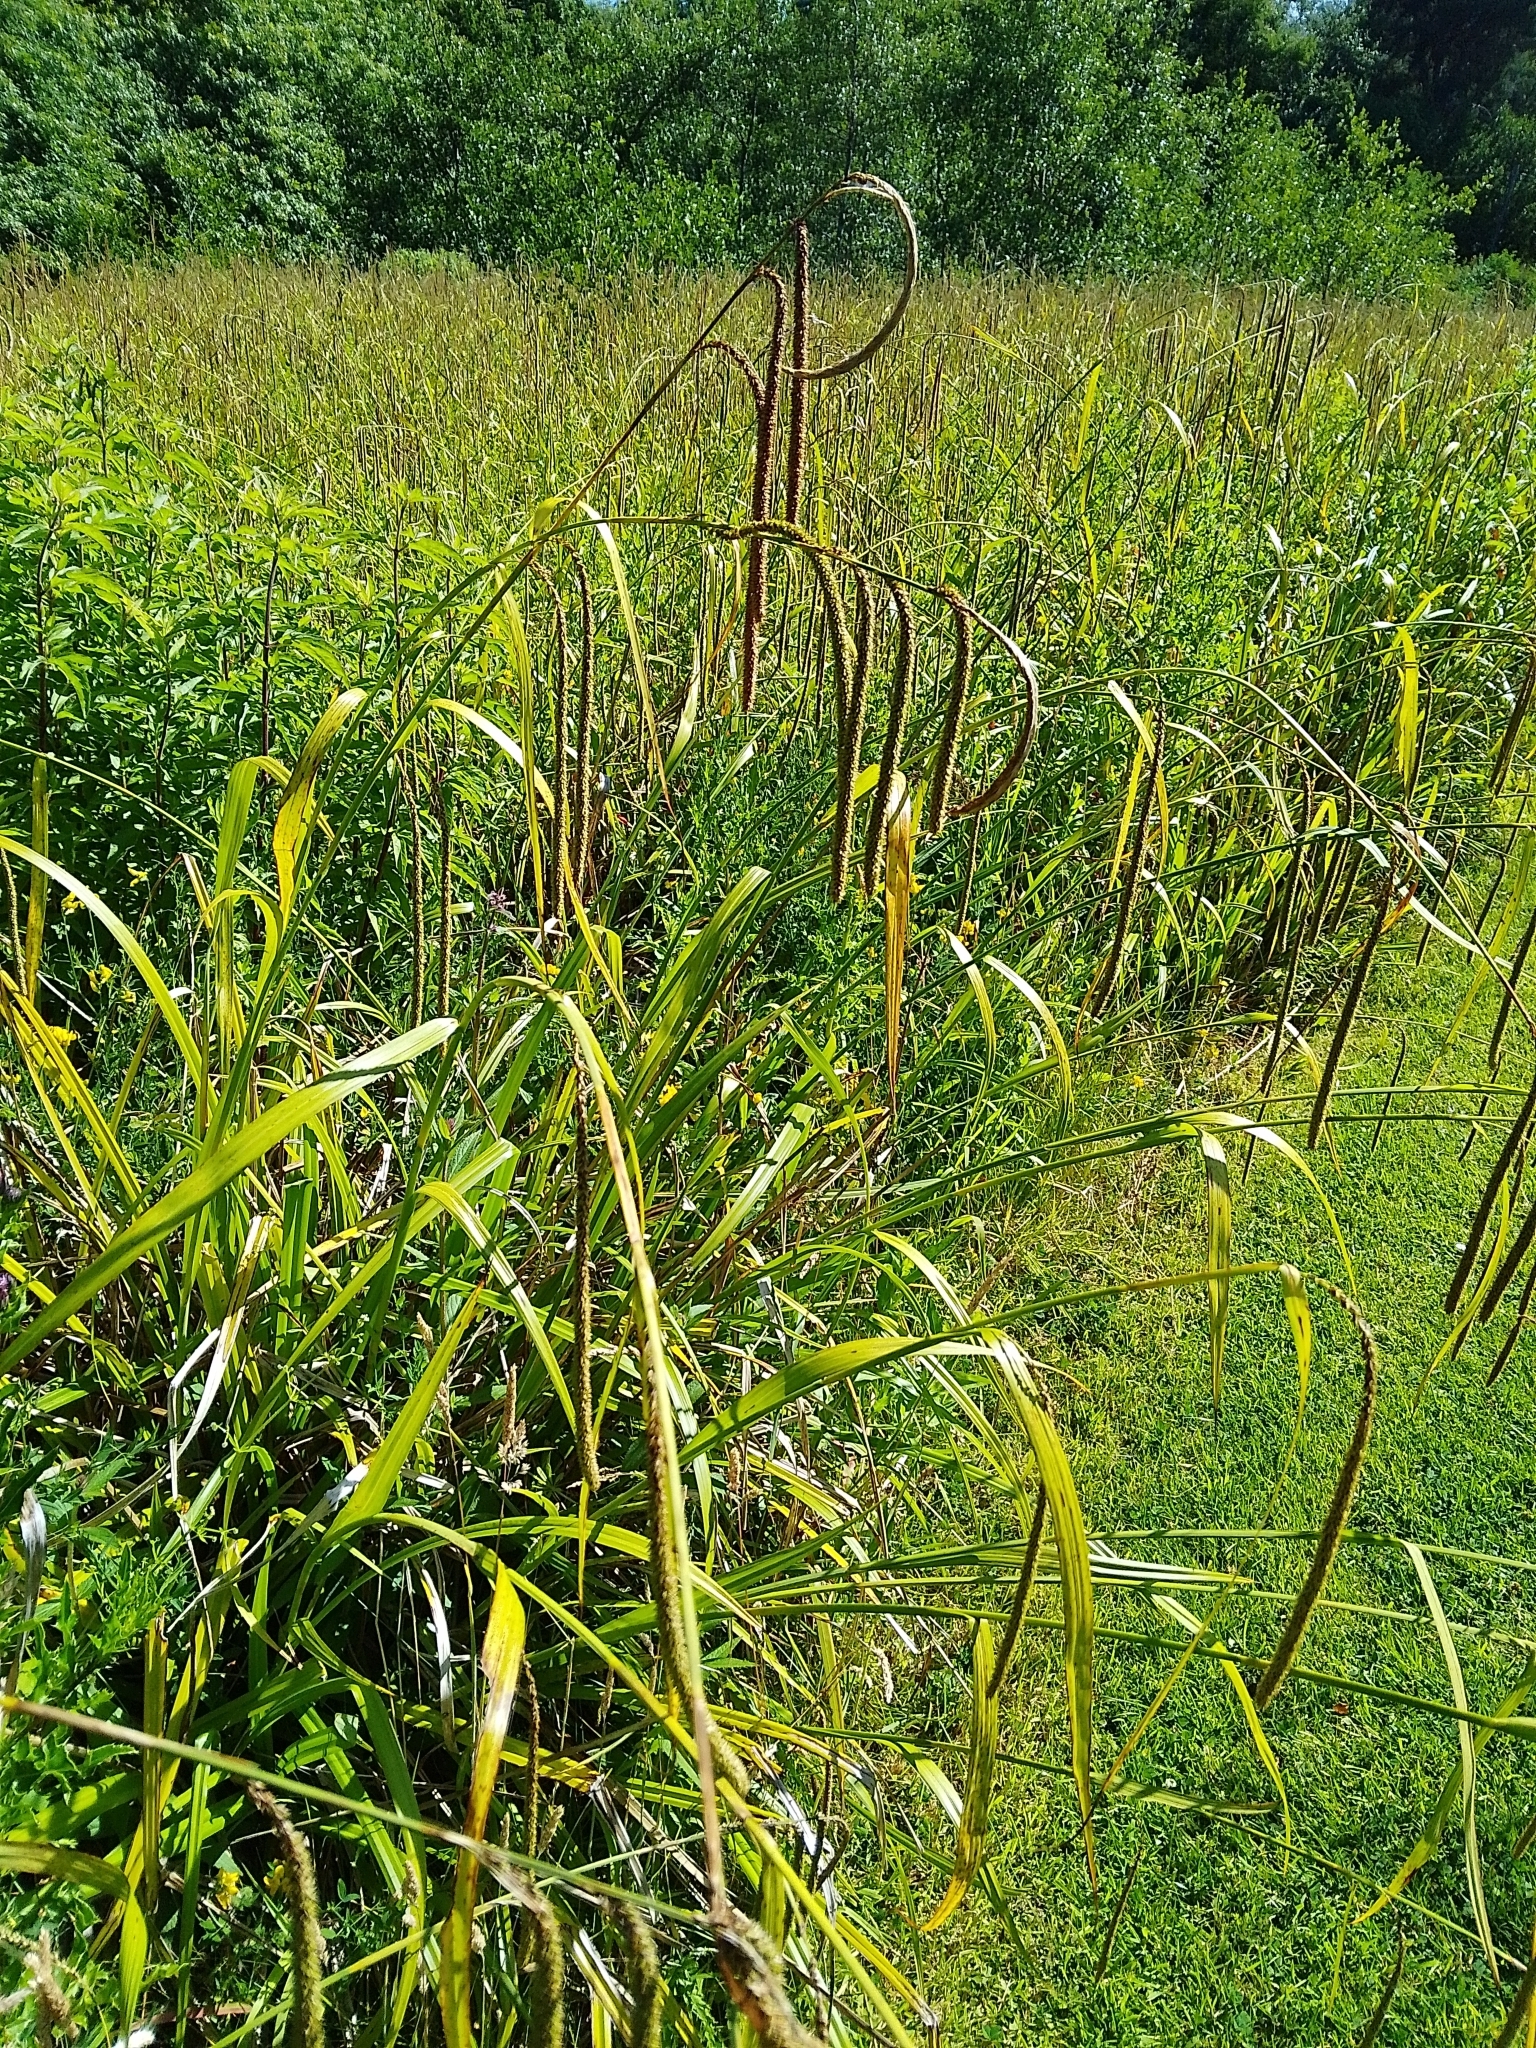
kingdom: Plantae
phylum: Tracheophyta
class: Liliopsida
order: Poales
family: Cyperaceae
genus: Carex
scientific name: Carex pendula
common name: Pendulous sedge
